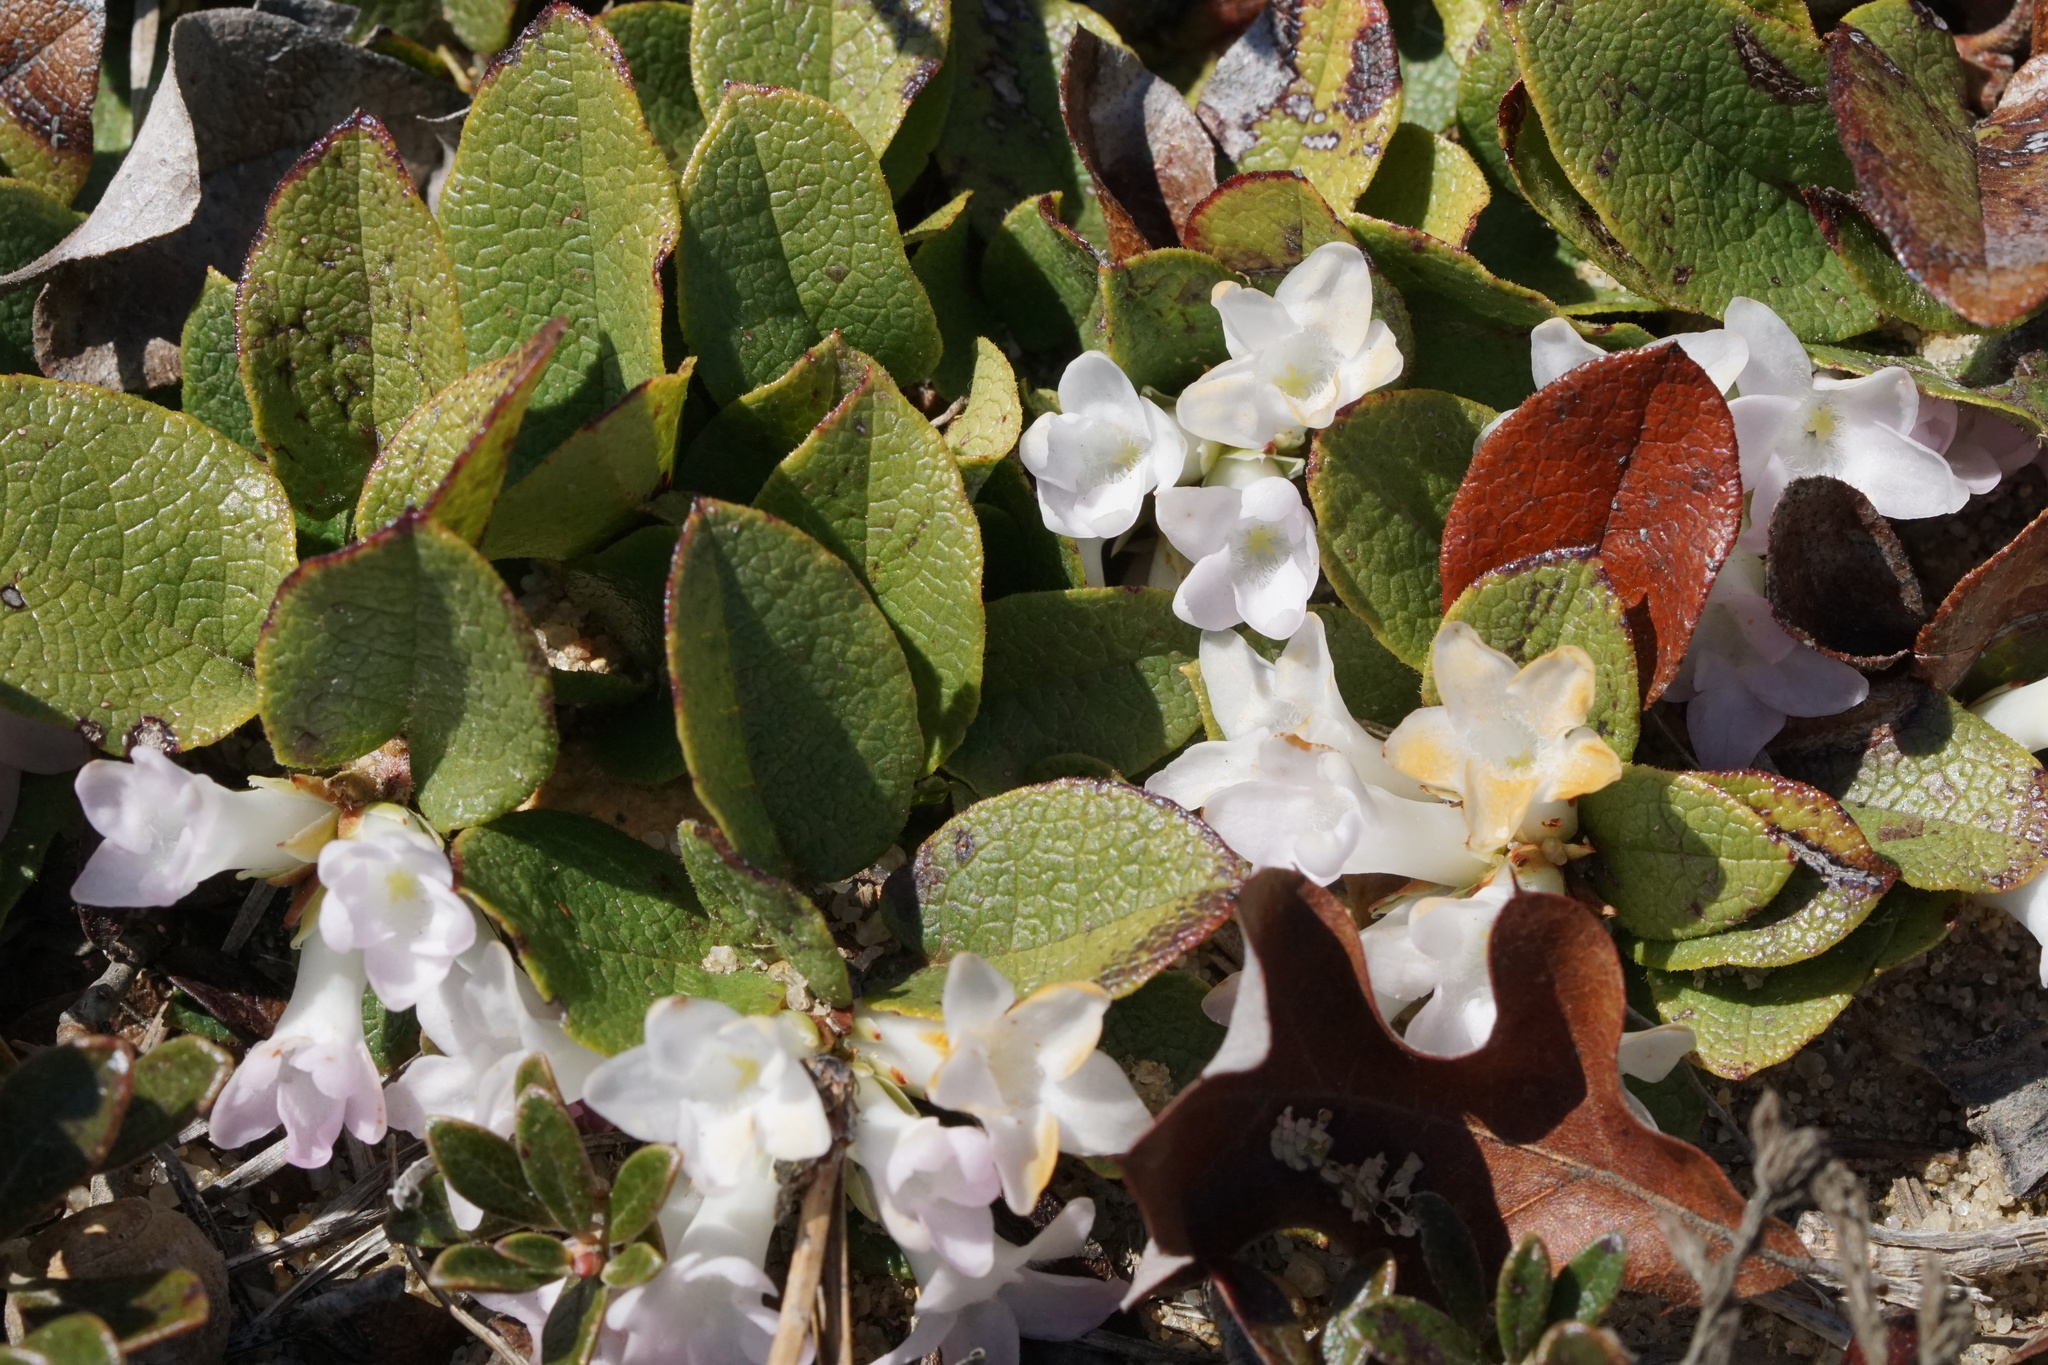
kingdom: Plantae
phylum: Tracheophyta
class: Magnoliopsida
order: Ericales
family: Ericaceae
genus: Epigaea
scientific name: Epigaea repens
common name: Gravelroot
